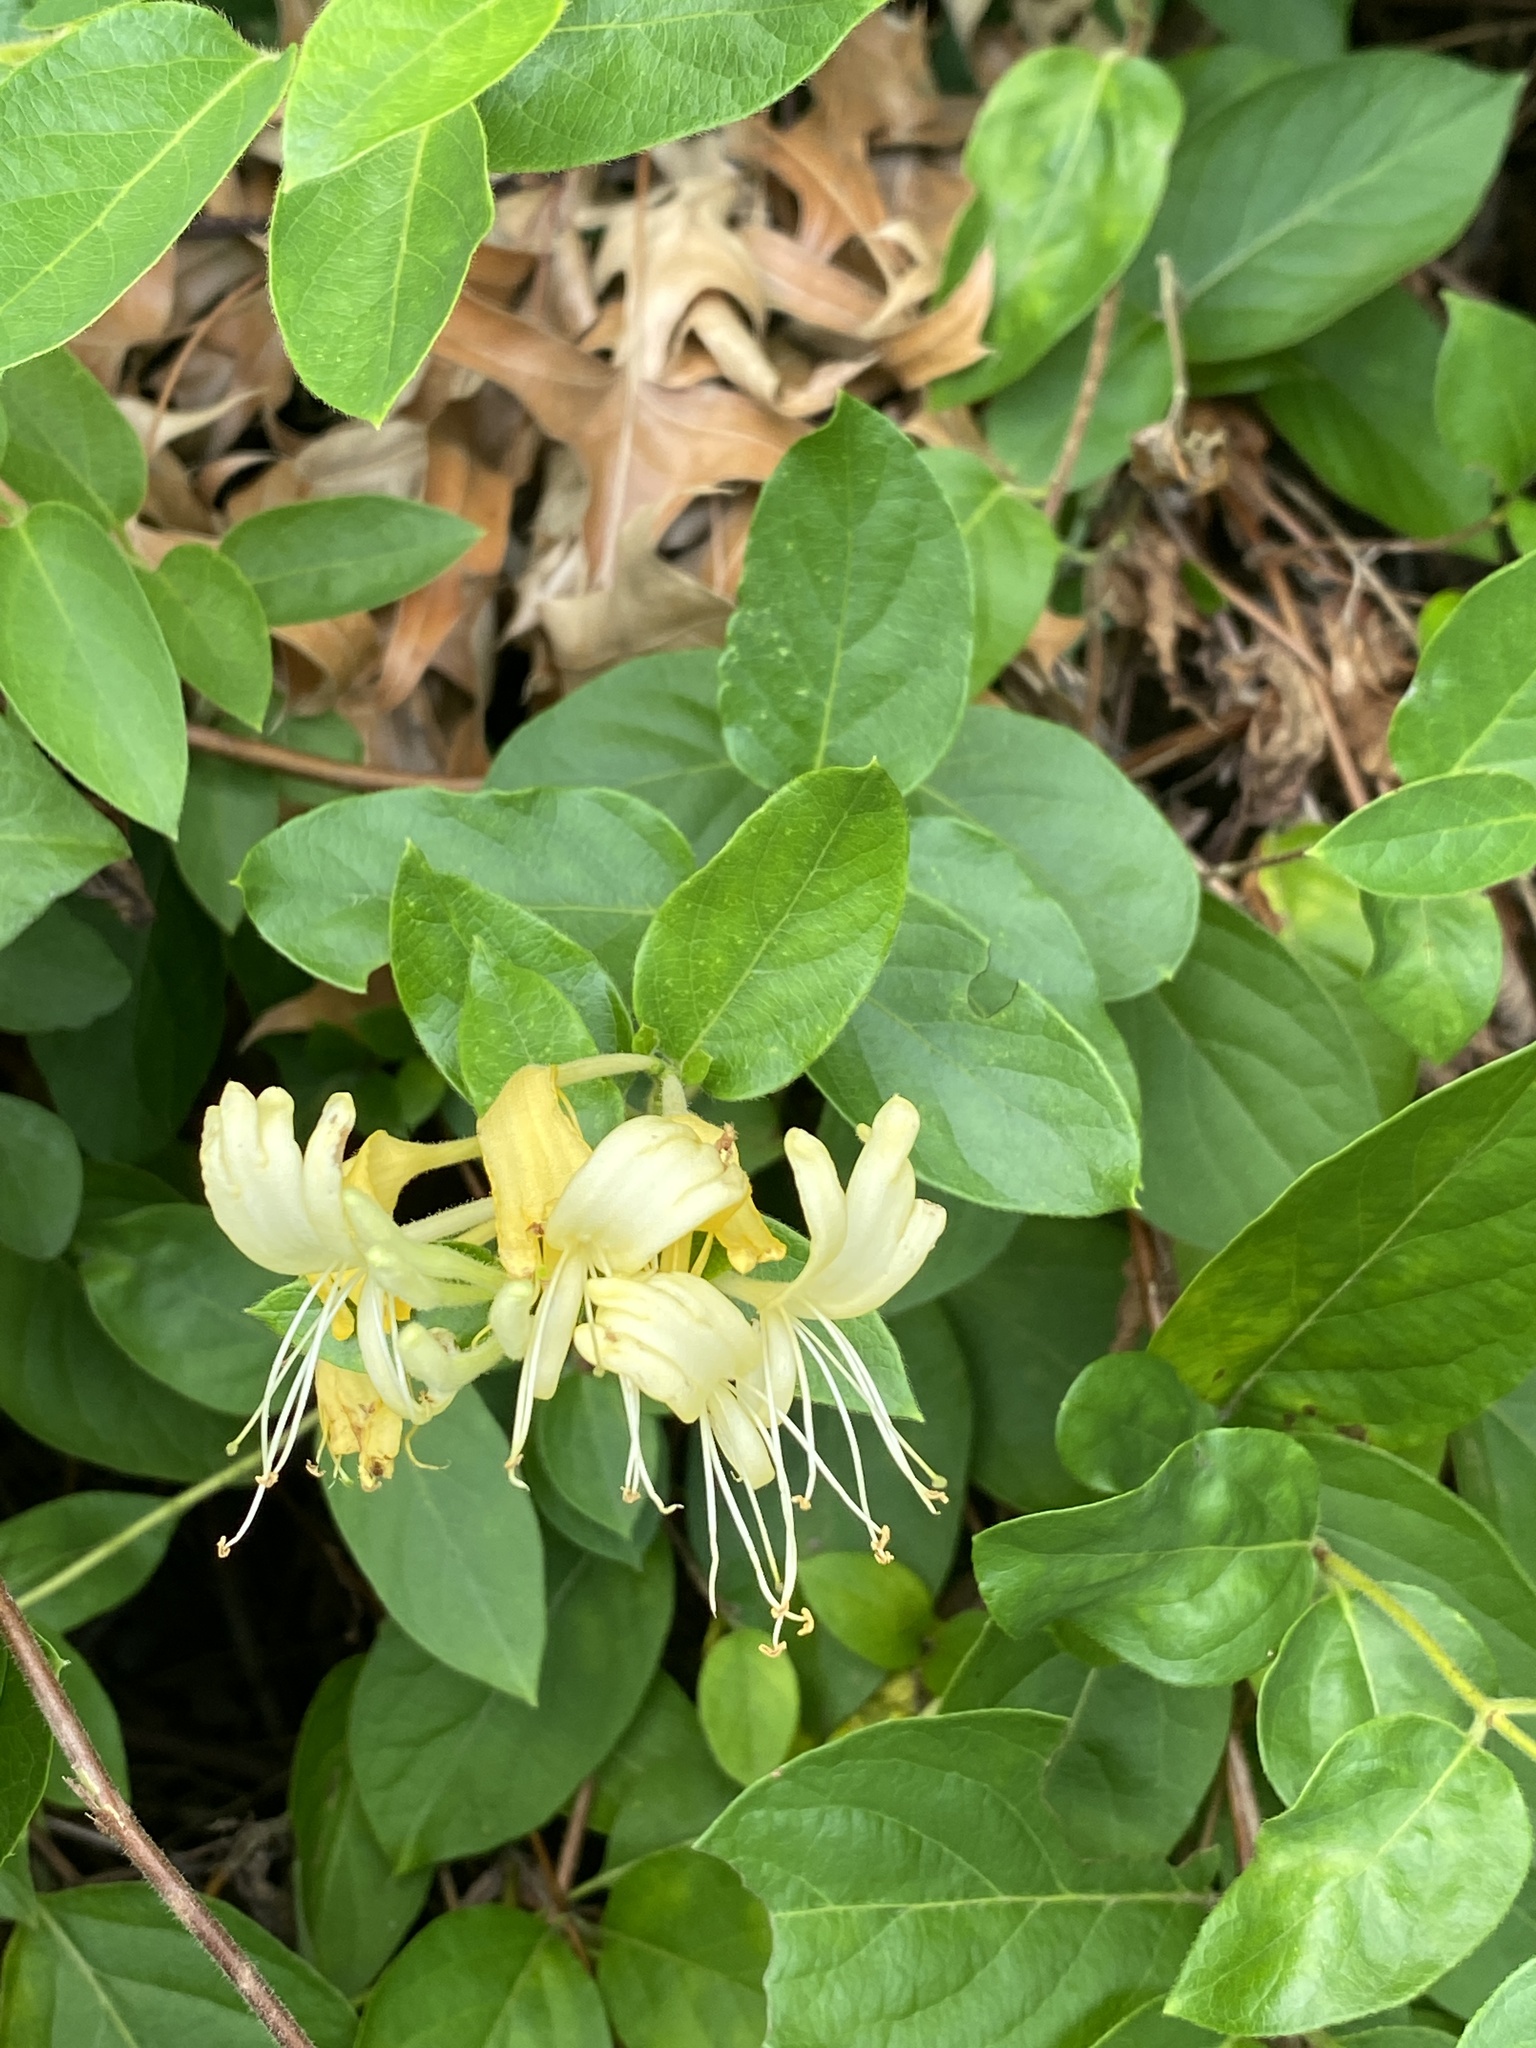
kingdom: Plantae
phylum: Tracheophyta
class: Magnoliopsida
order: Dipsacales
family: Caprifoliaceae
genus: Lonicera
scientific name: Lonicera japonica
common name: Japanese honeysuckle
